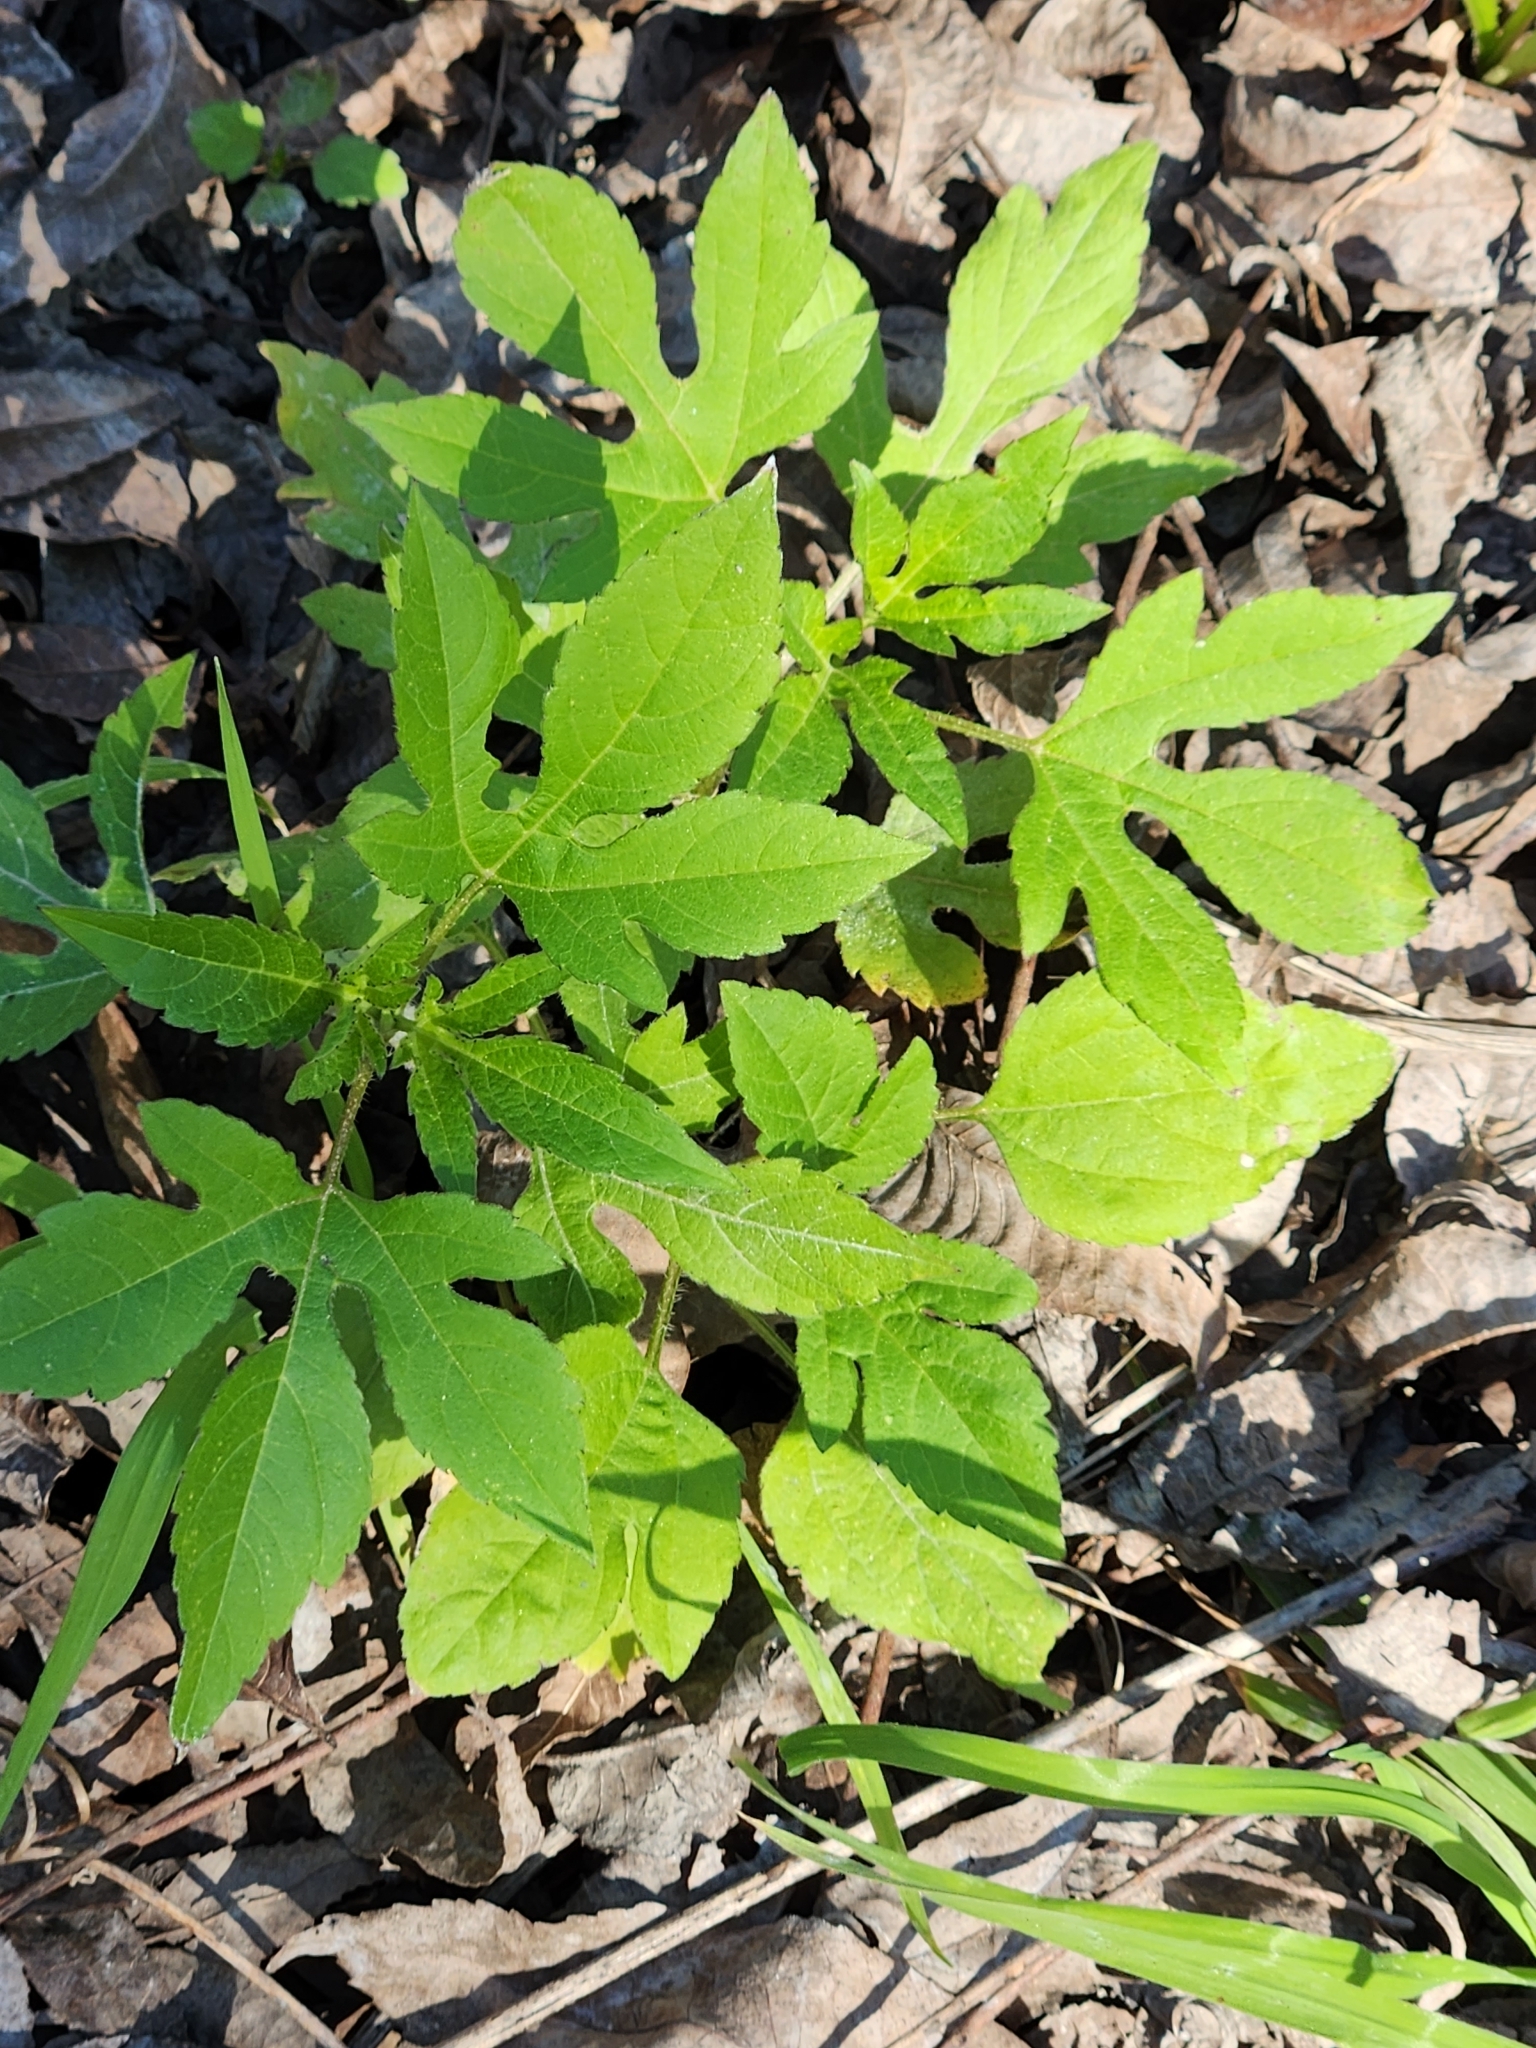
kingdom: Plantae
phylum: Tracheophyta
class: Magnoliopsida
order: Asterales
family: Asteraceae
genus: Ambrosia
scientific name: Ambrosia trifida
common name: Giant ragweed
